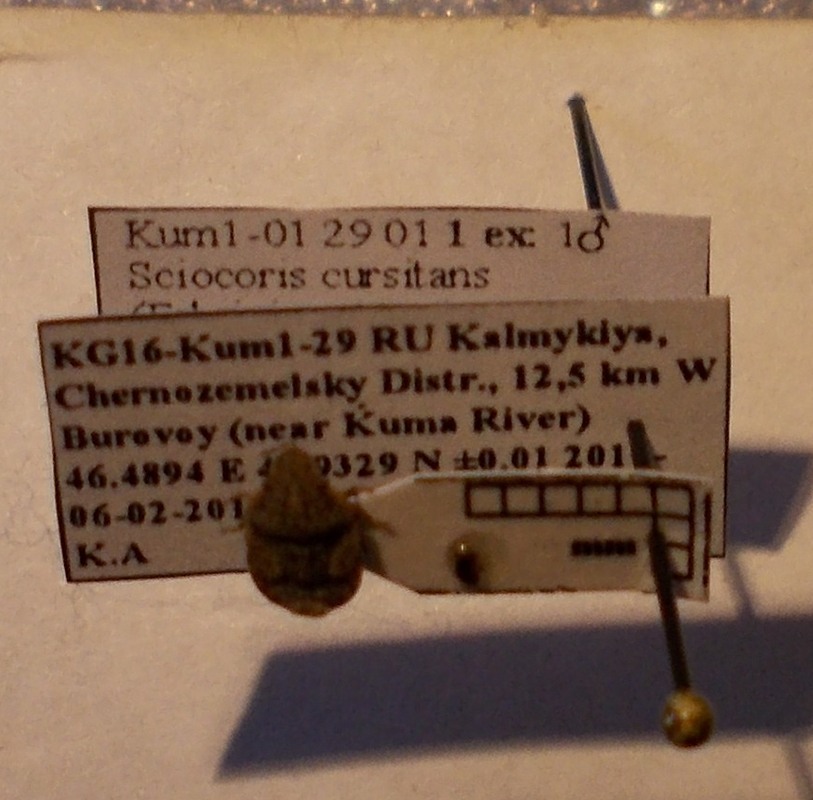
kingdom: Animalia
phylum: Arthropoda
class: Insecta
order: Hemiptera
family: Pentatomidae
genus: Sciocoris
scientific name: Sciocoris cursitans
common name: Sandrunner
